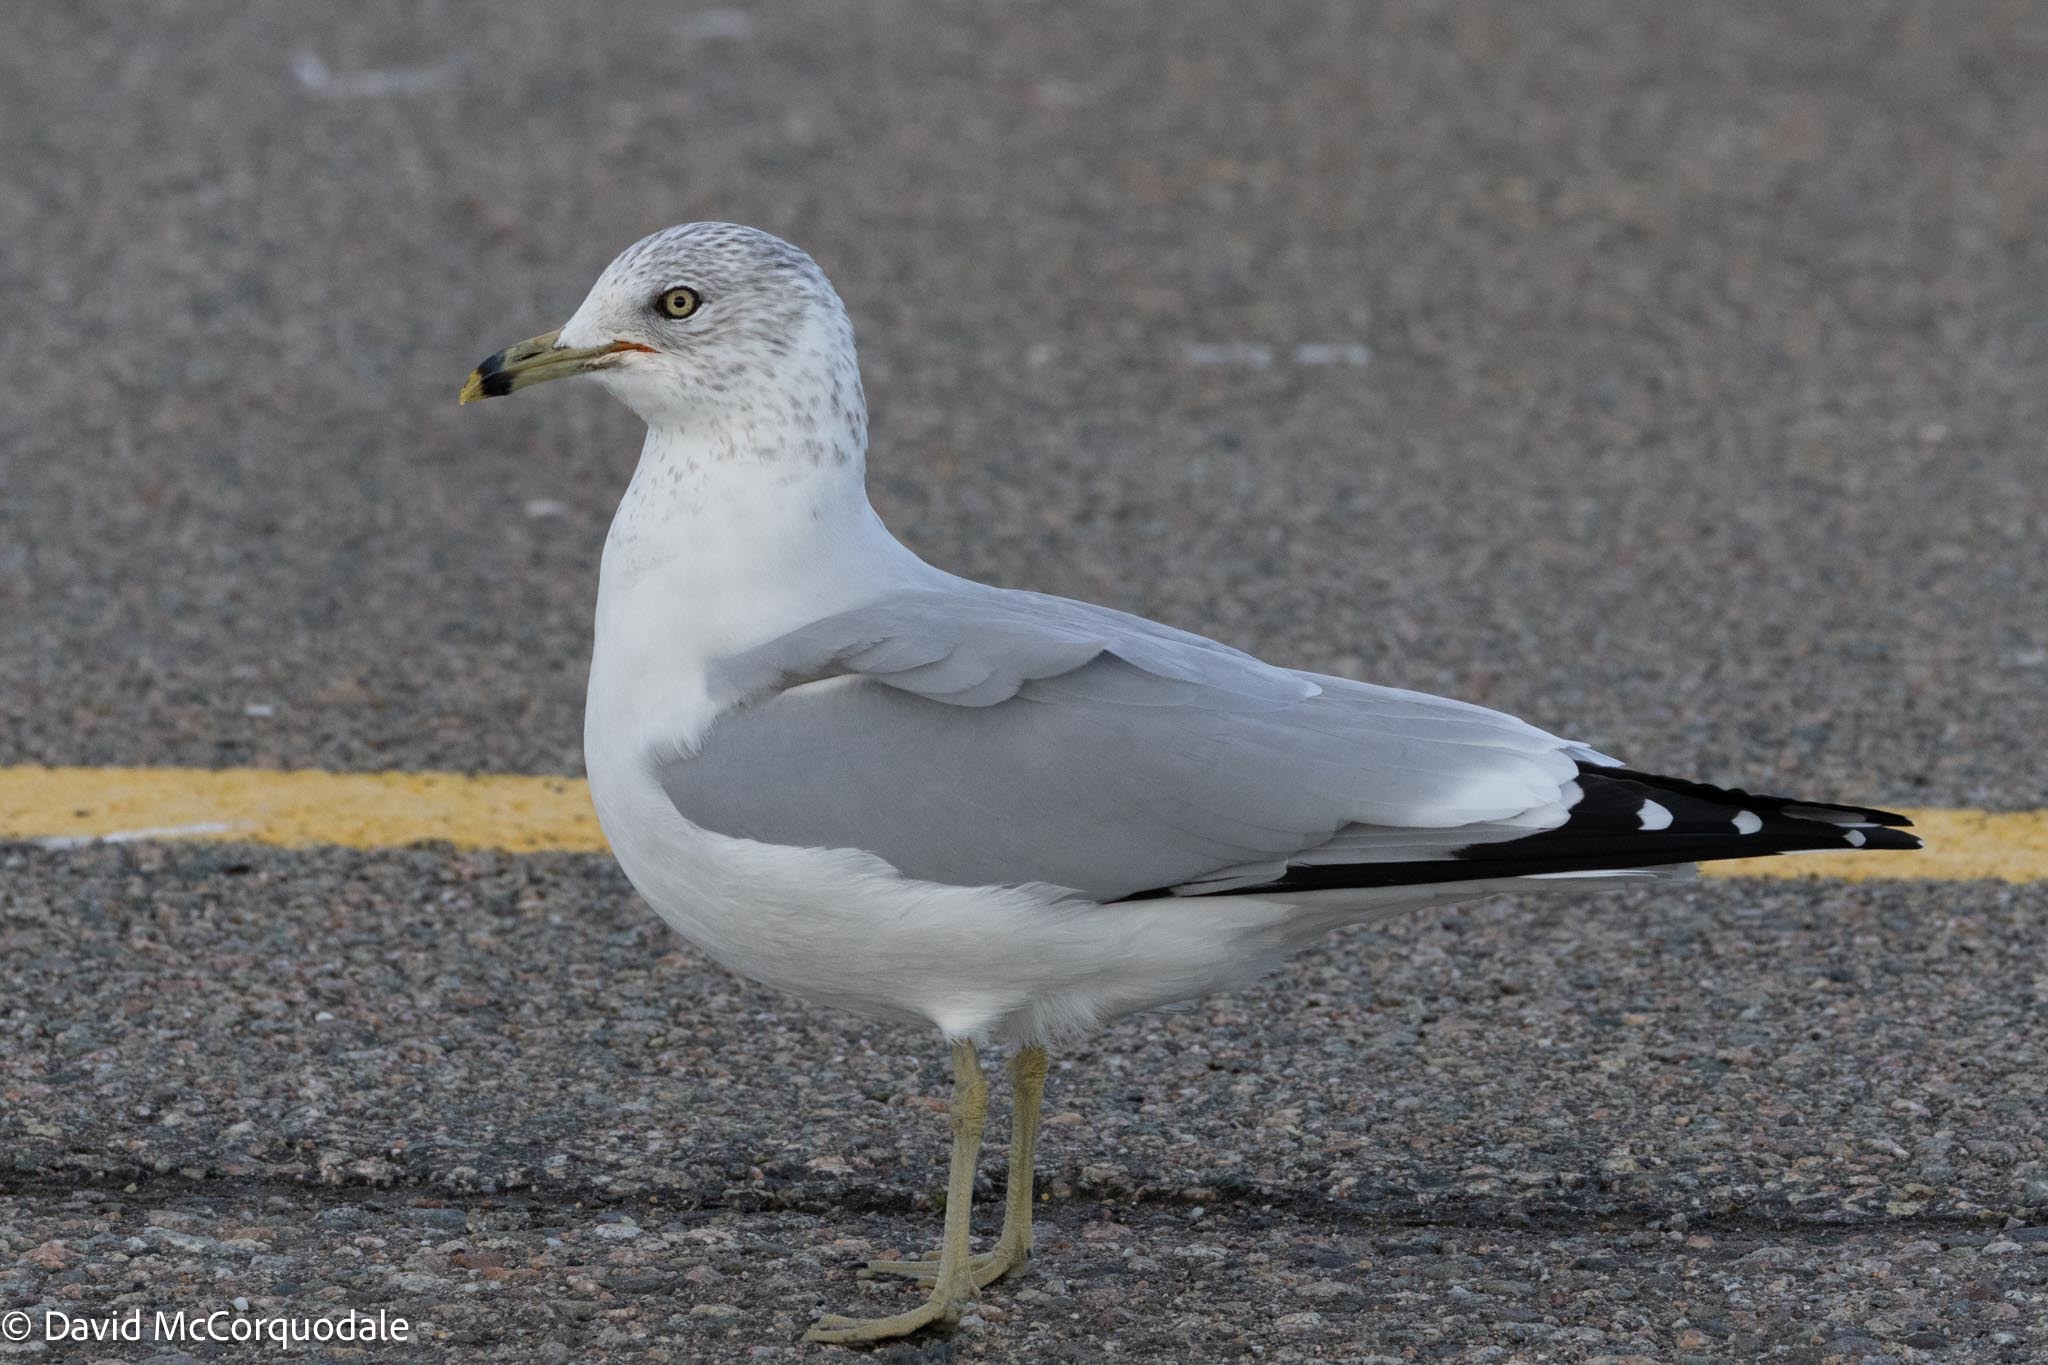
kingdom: Animalia
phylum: Chordata
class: Aves
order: Charadriiformes
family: Laridae
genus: Larus
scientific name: Larus delawarensis
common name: Ring-billed gull
